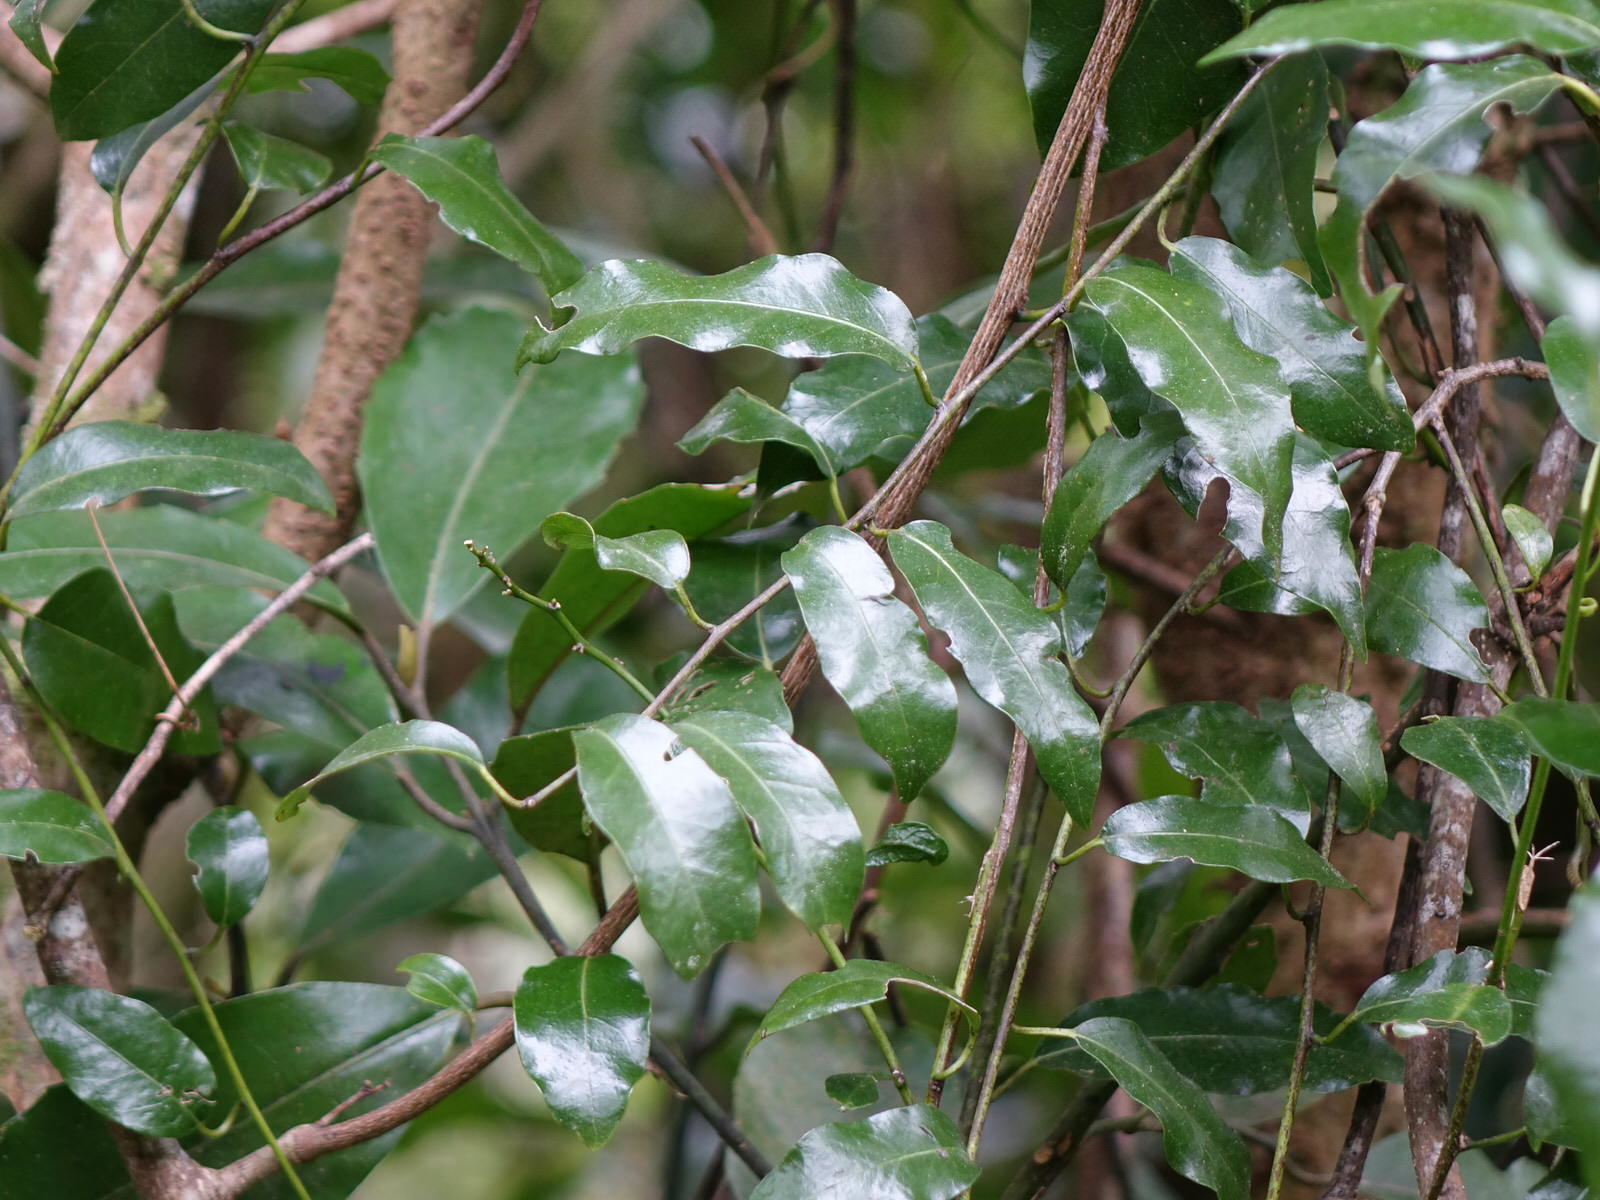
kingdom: Plantae
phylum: Tracheophyta
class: Magnoliopsida
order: Malpighiales
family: Passifloraceae
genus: Passiflora
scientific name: Passiflora tetrandra
